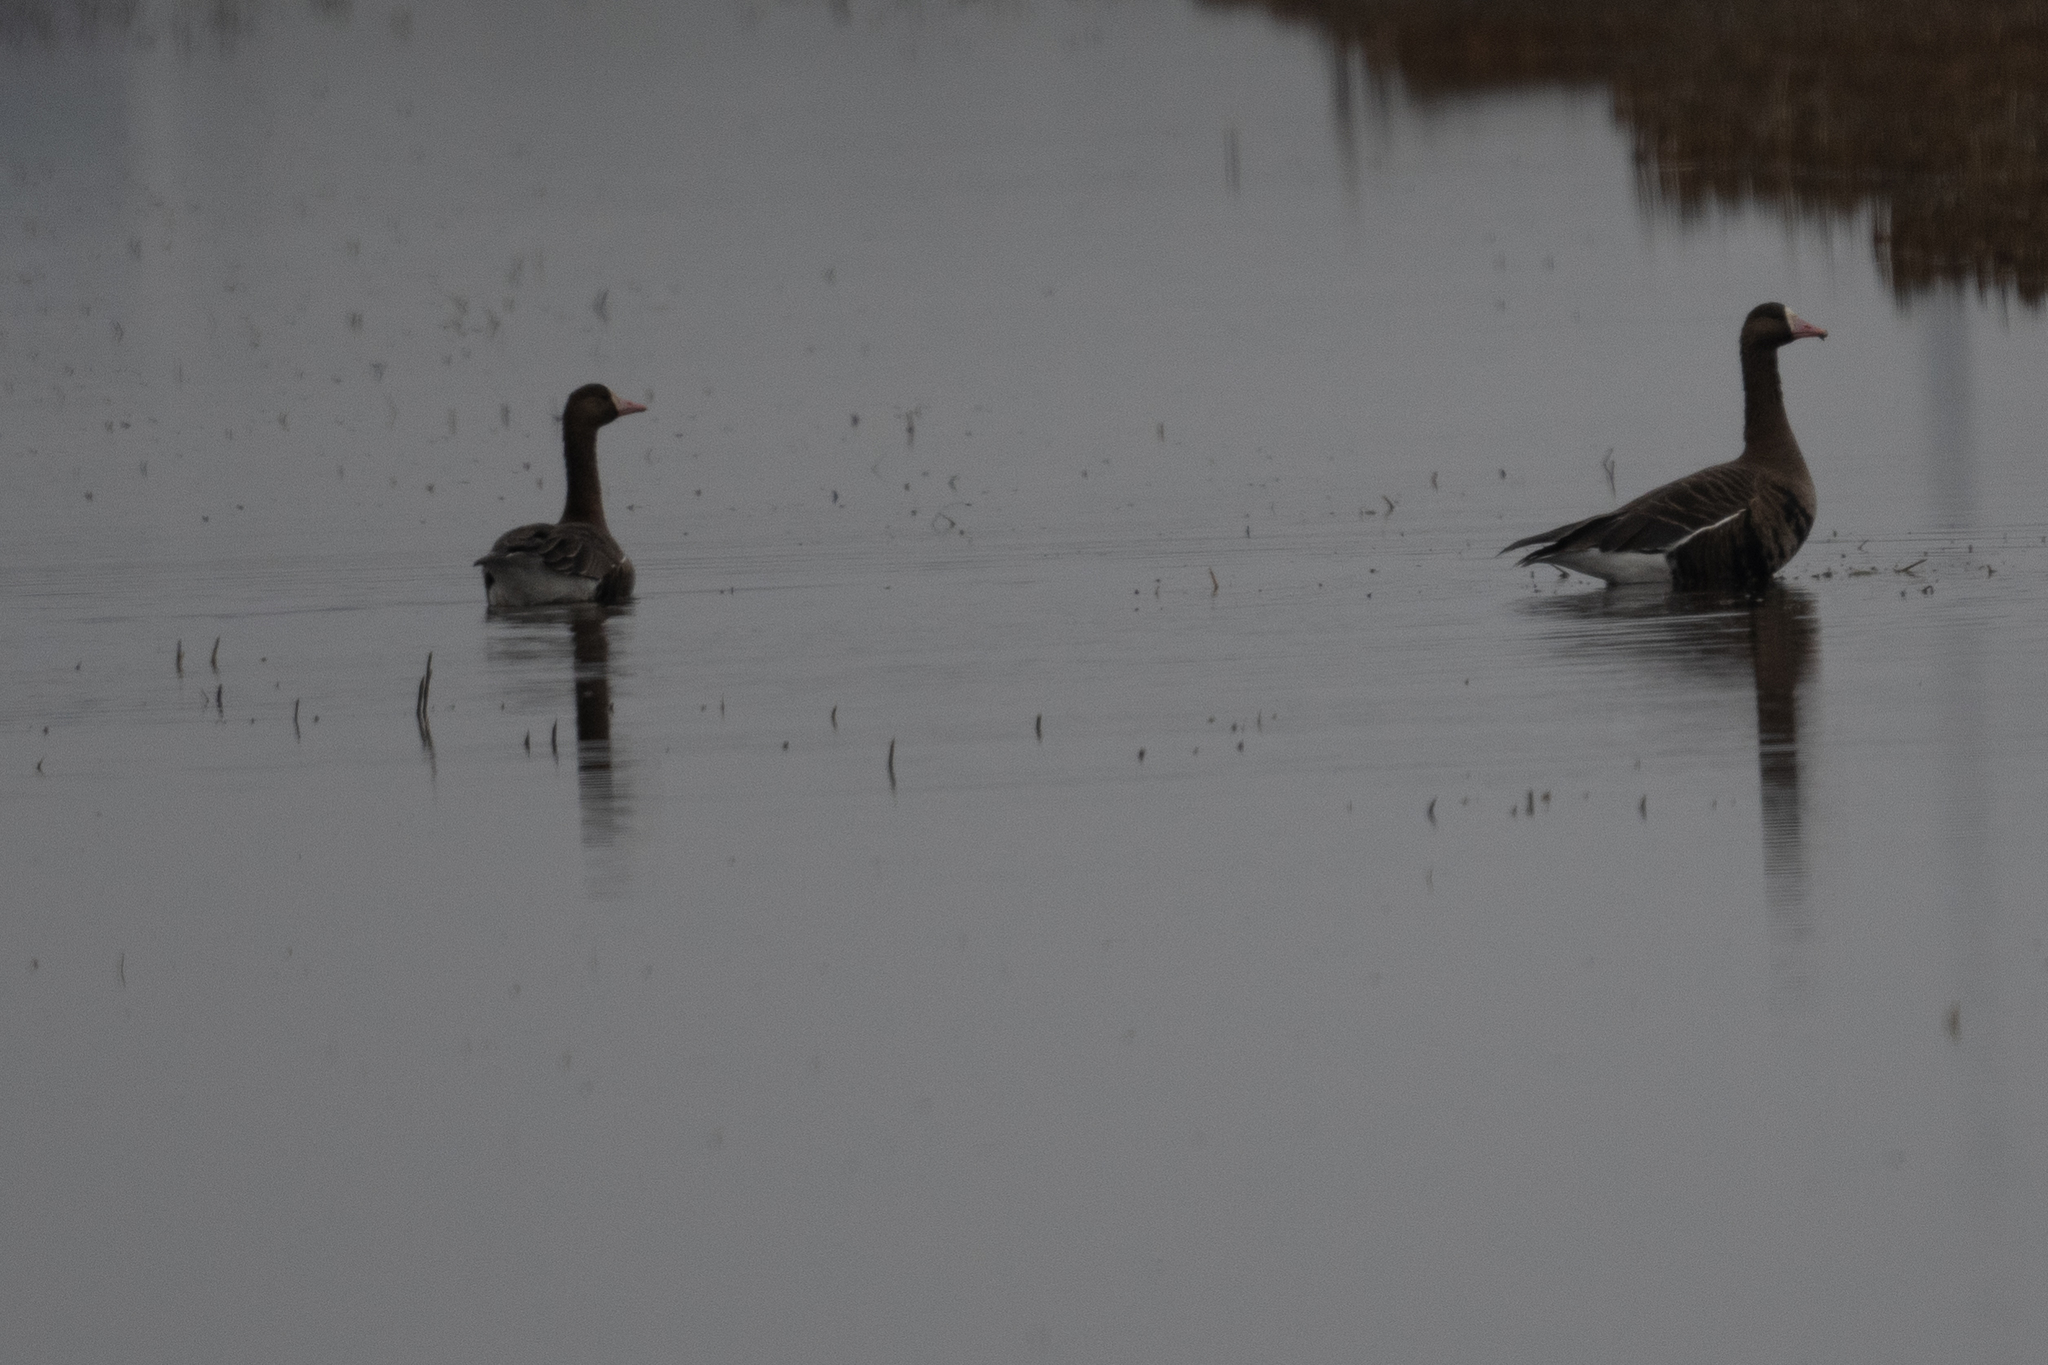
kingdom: Animalia
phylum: Chordata
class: Aves
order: Anseriformes
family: Anatidae
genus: Anser
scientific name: Anser albifrons
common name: Greater white-fronted goose
